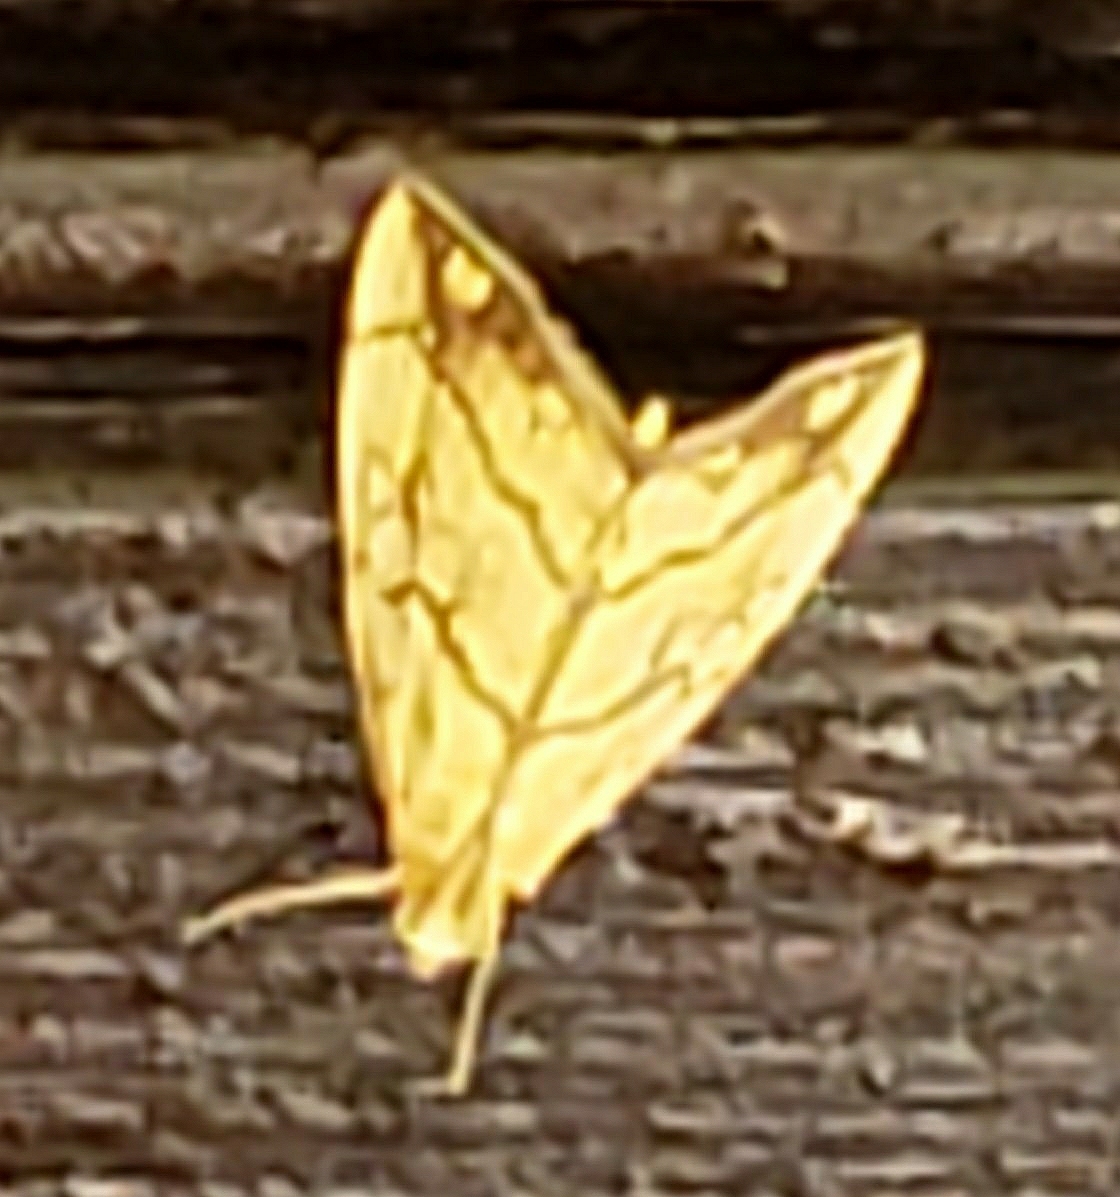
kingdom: Animalia
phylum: Arthropoda
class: Insecta
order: Lepidoptera
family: Crambidae
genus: Evergestis
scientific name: Evergestis pallidata
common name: Chequered pearl
